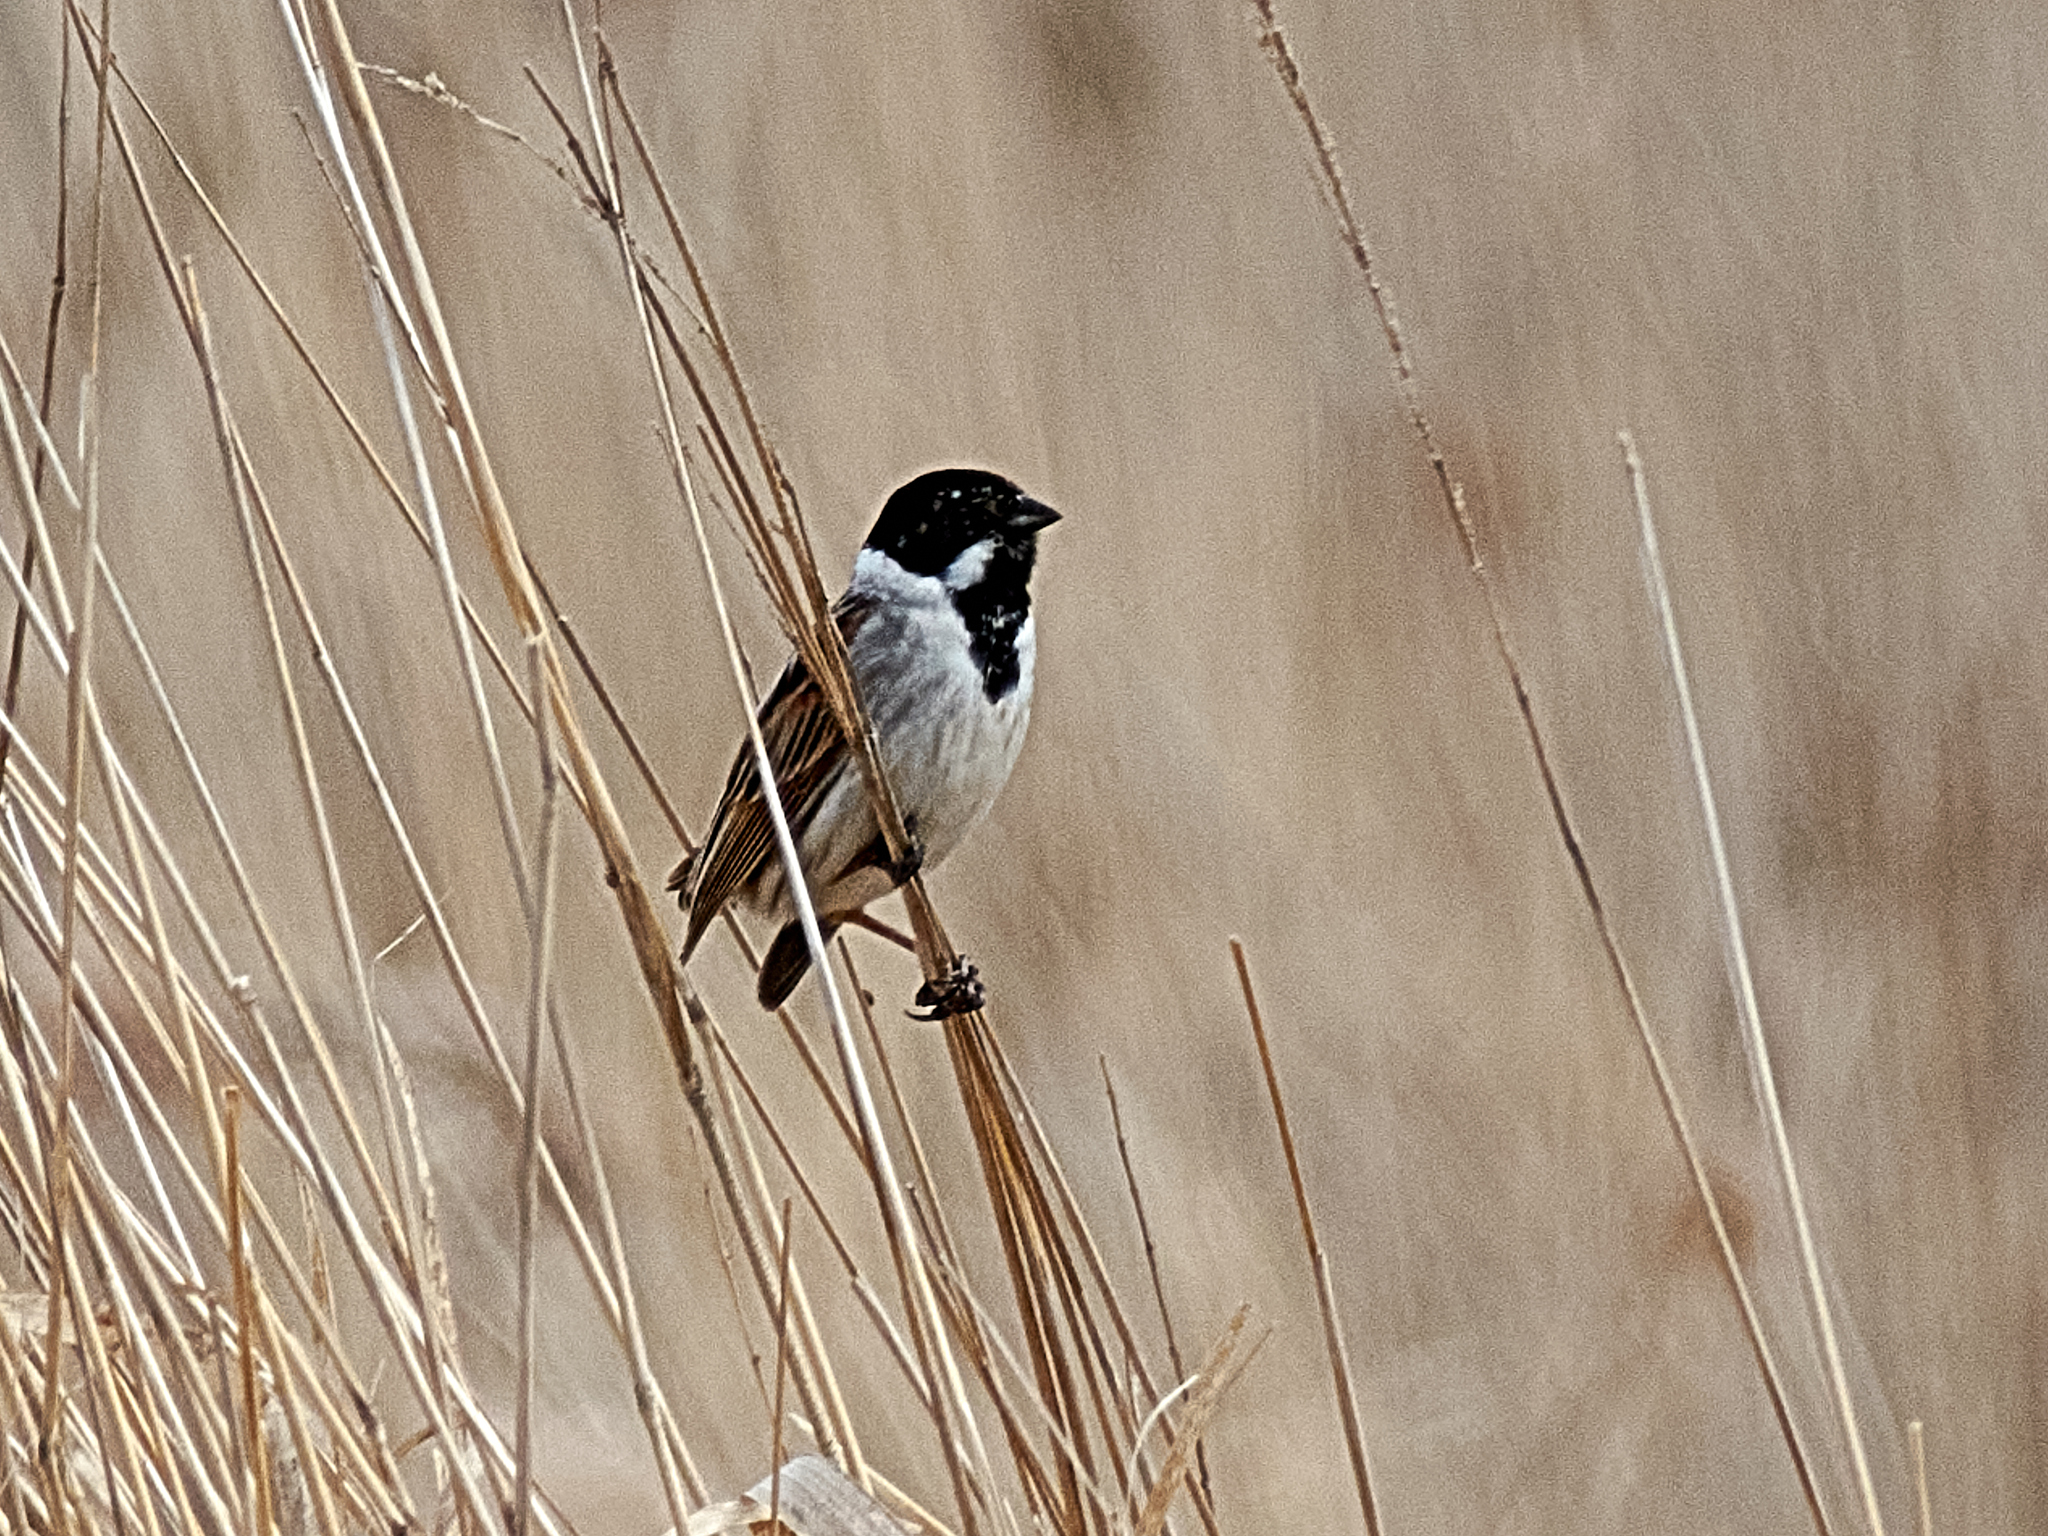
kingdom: Animalia
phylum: Chordata
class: Aves
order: Passeriformes
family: Emberizidae
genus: Emberiza
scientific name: Emberiza schoeniclus
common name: Reed bunting
